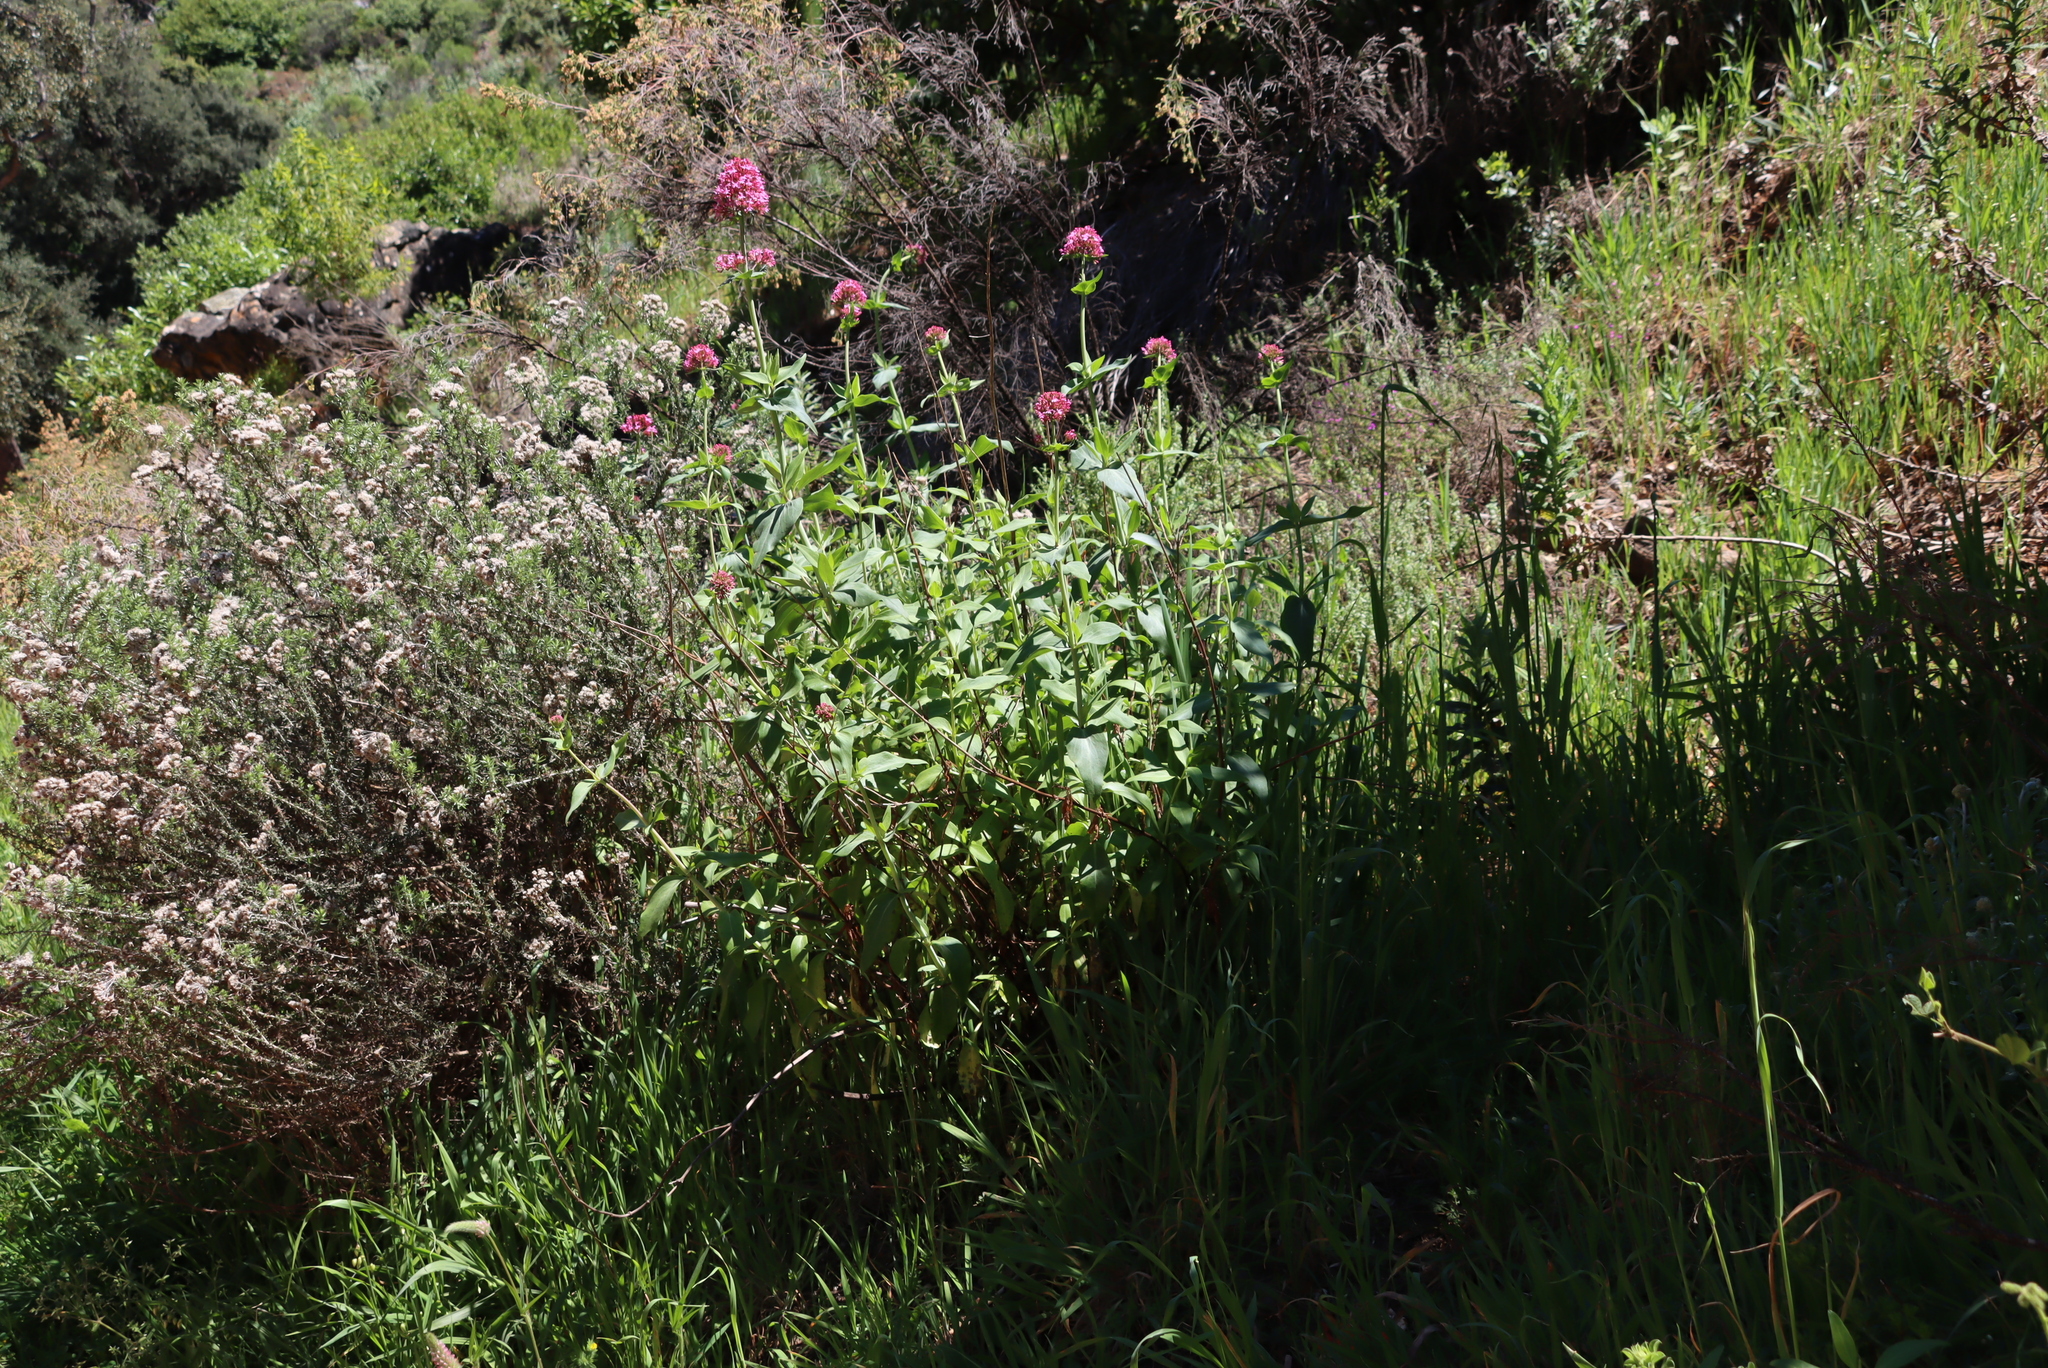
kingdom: Plantae
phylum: Tracheophyta
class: Magnoliopsida
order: Dipsacales
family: Caprifoliaceae
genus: Centranthus
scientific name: Centranthus ruber
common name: Red valerian
